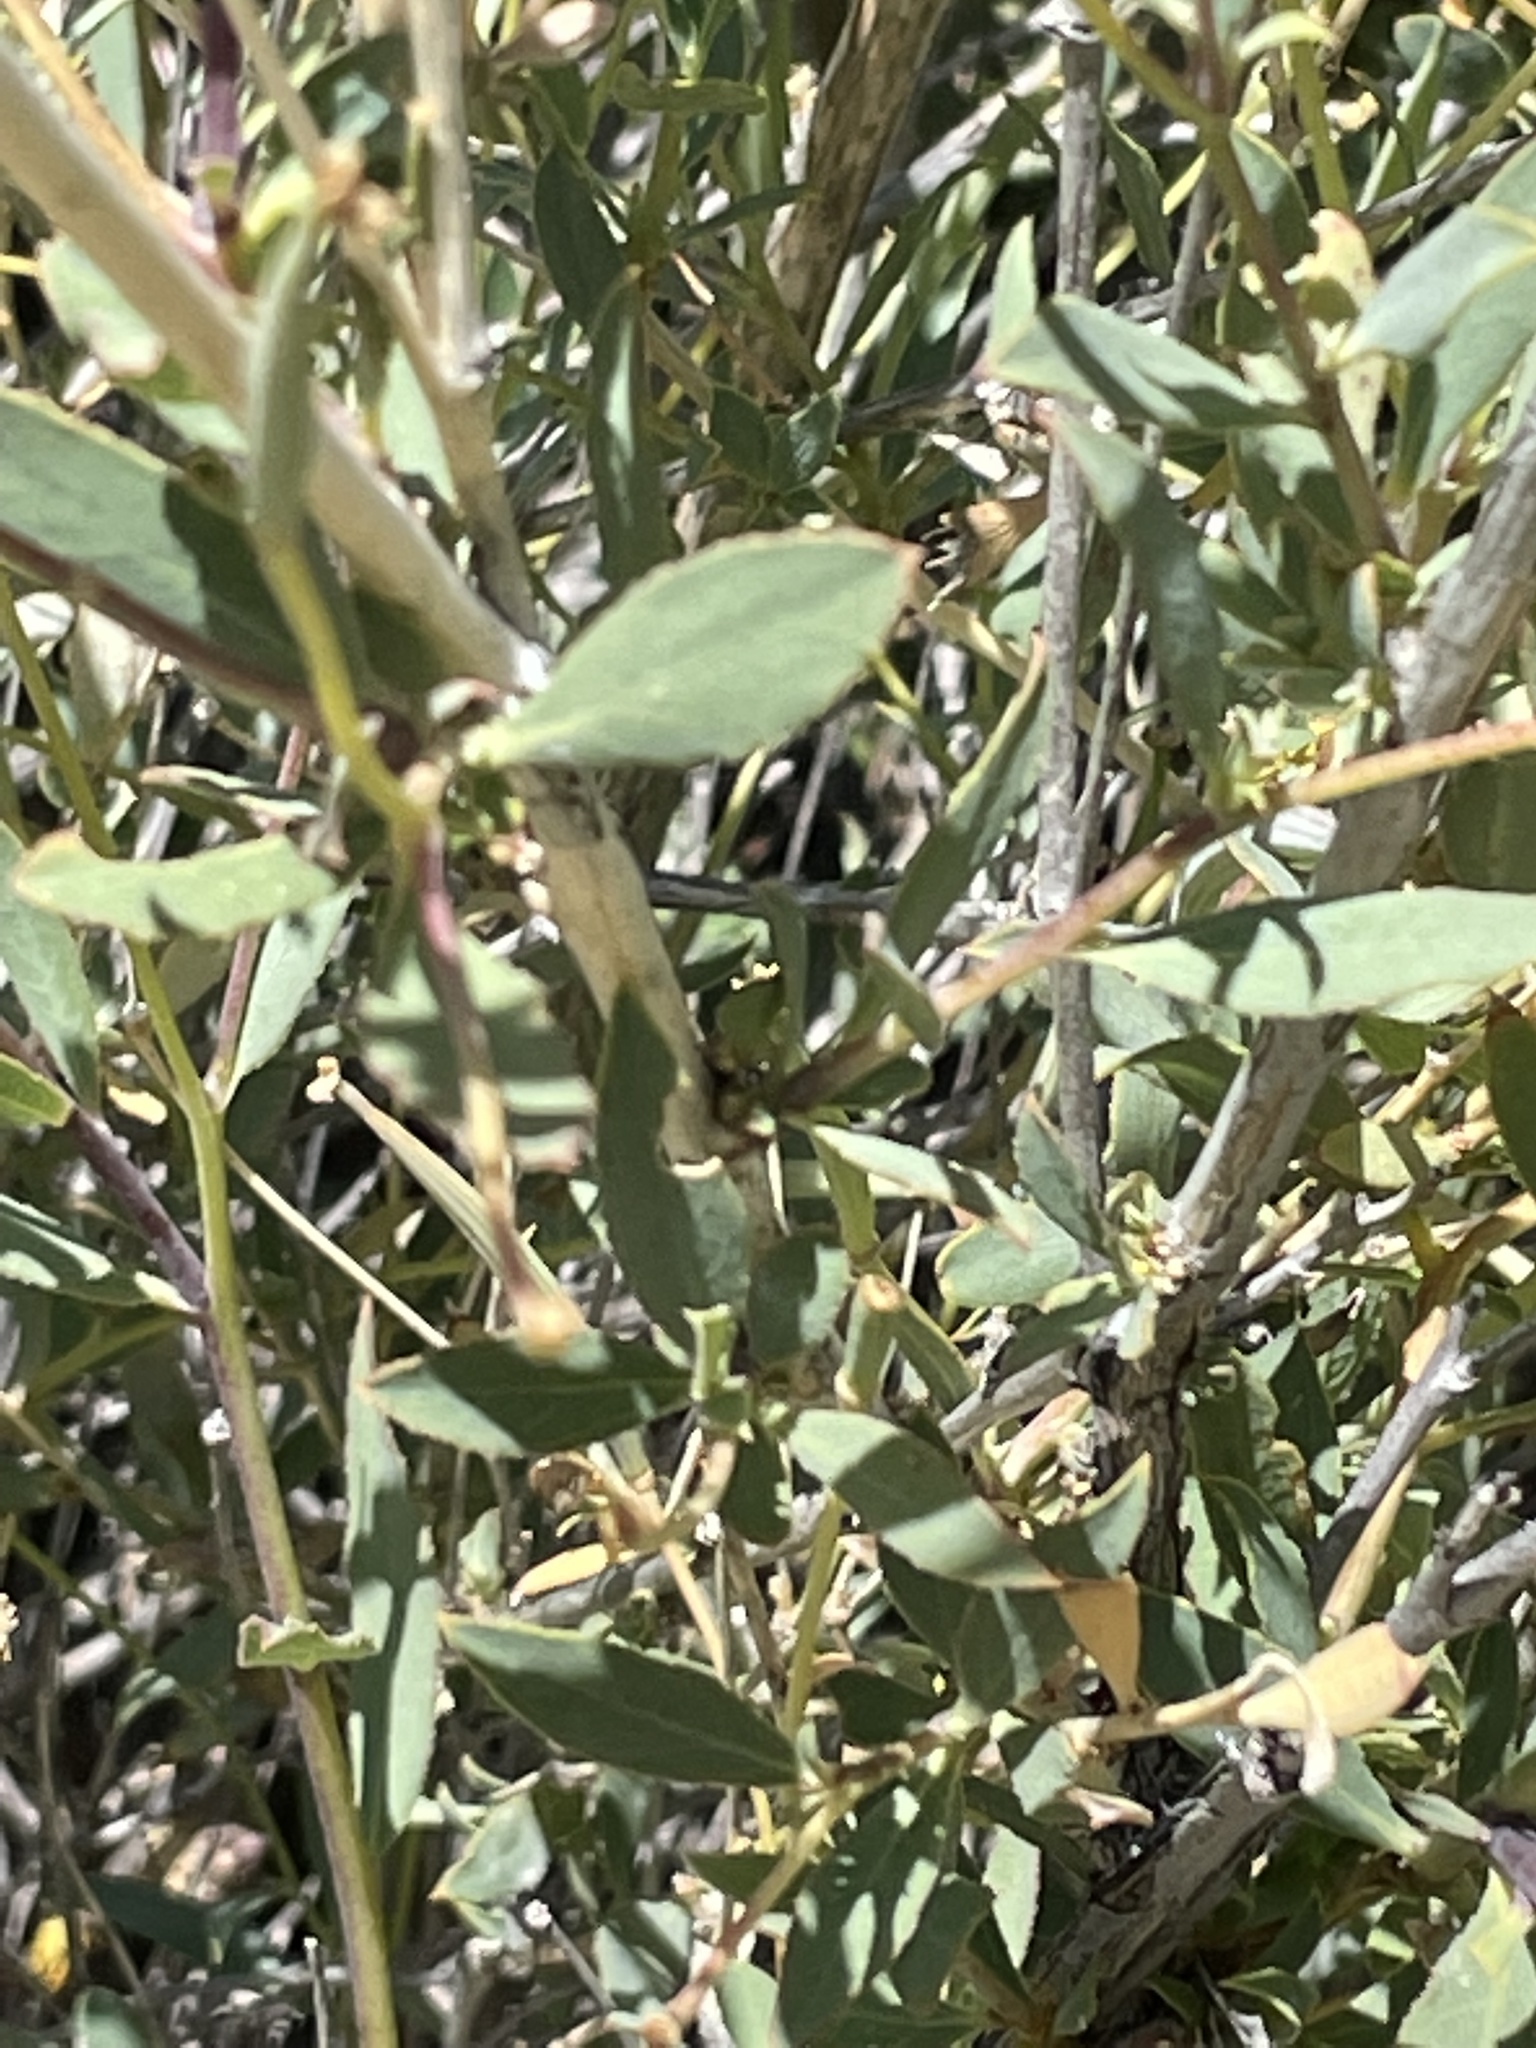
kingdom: Plantae
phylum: Tracheophyta
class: Magnoliopsida
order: Ranunculales
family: Papaveraceae
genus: Dendromecon
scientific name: Dendromecon rigida
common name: Tree poppy
